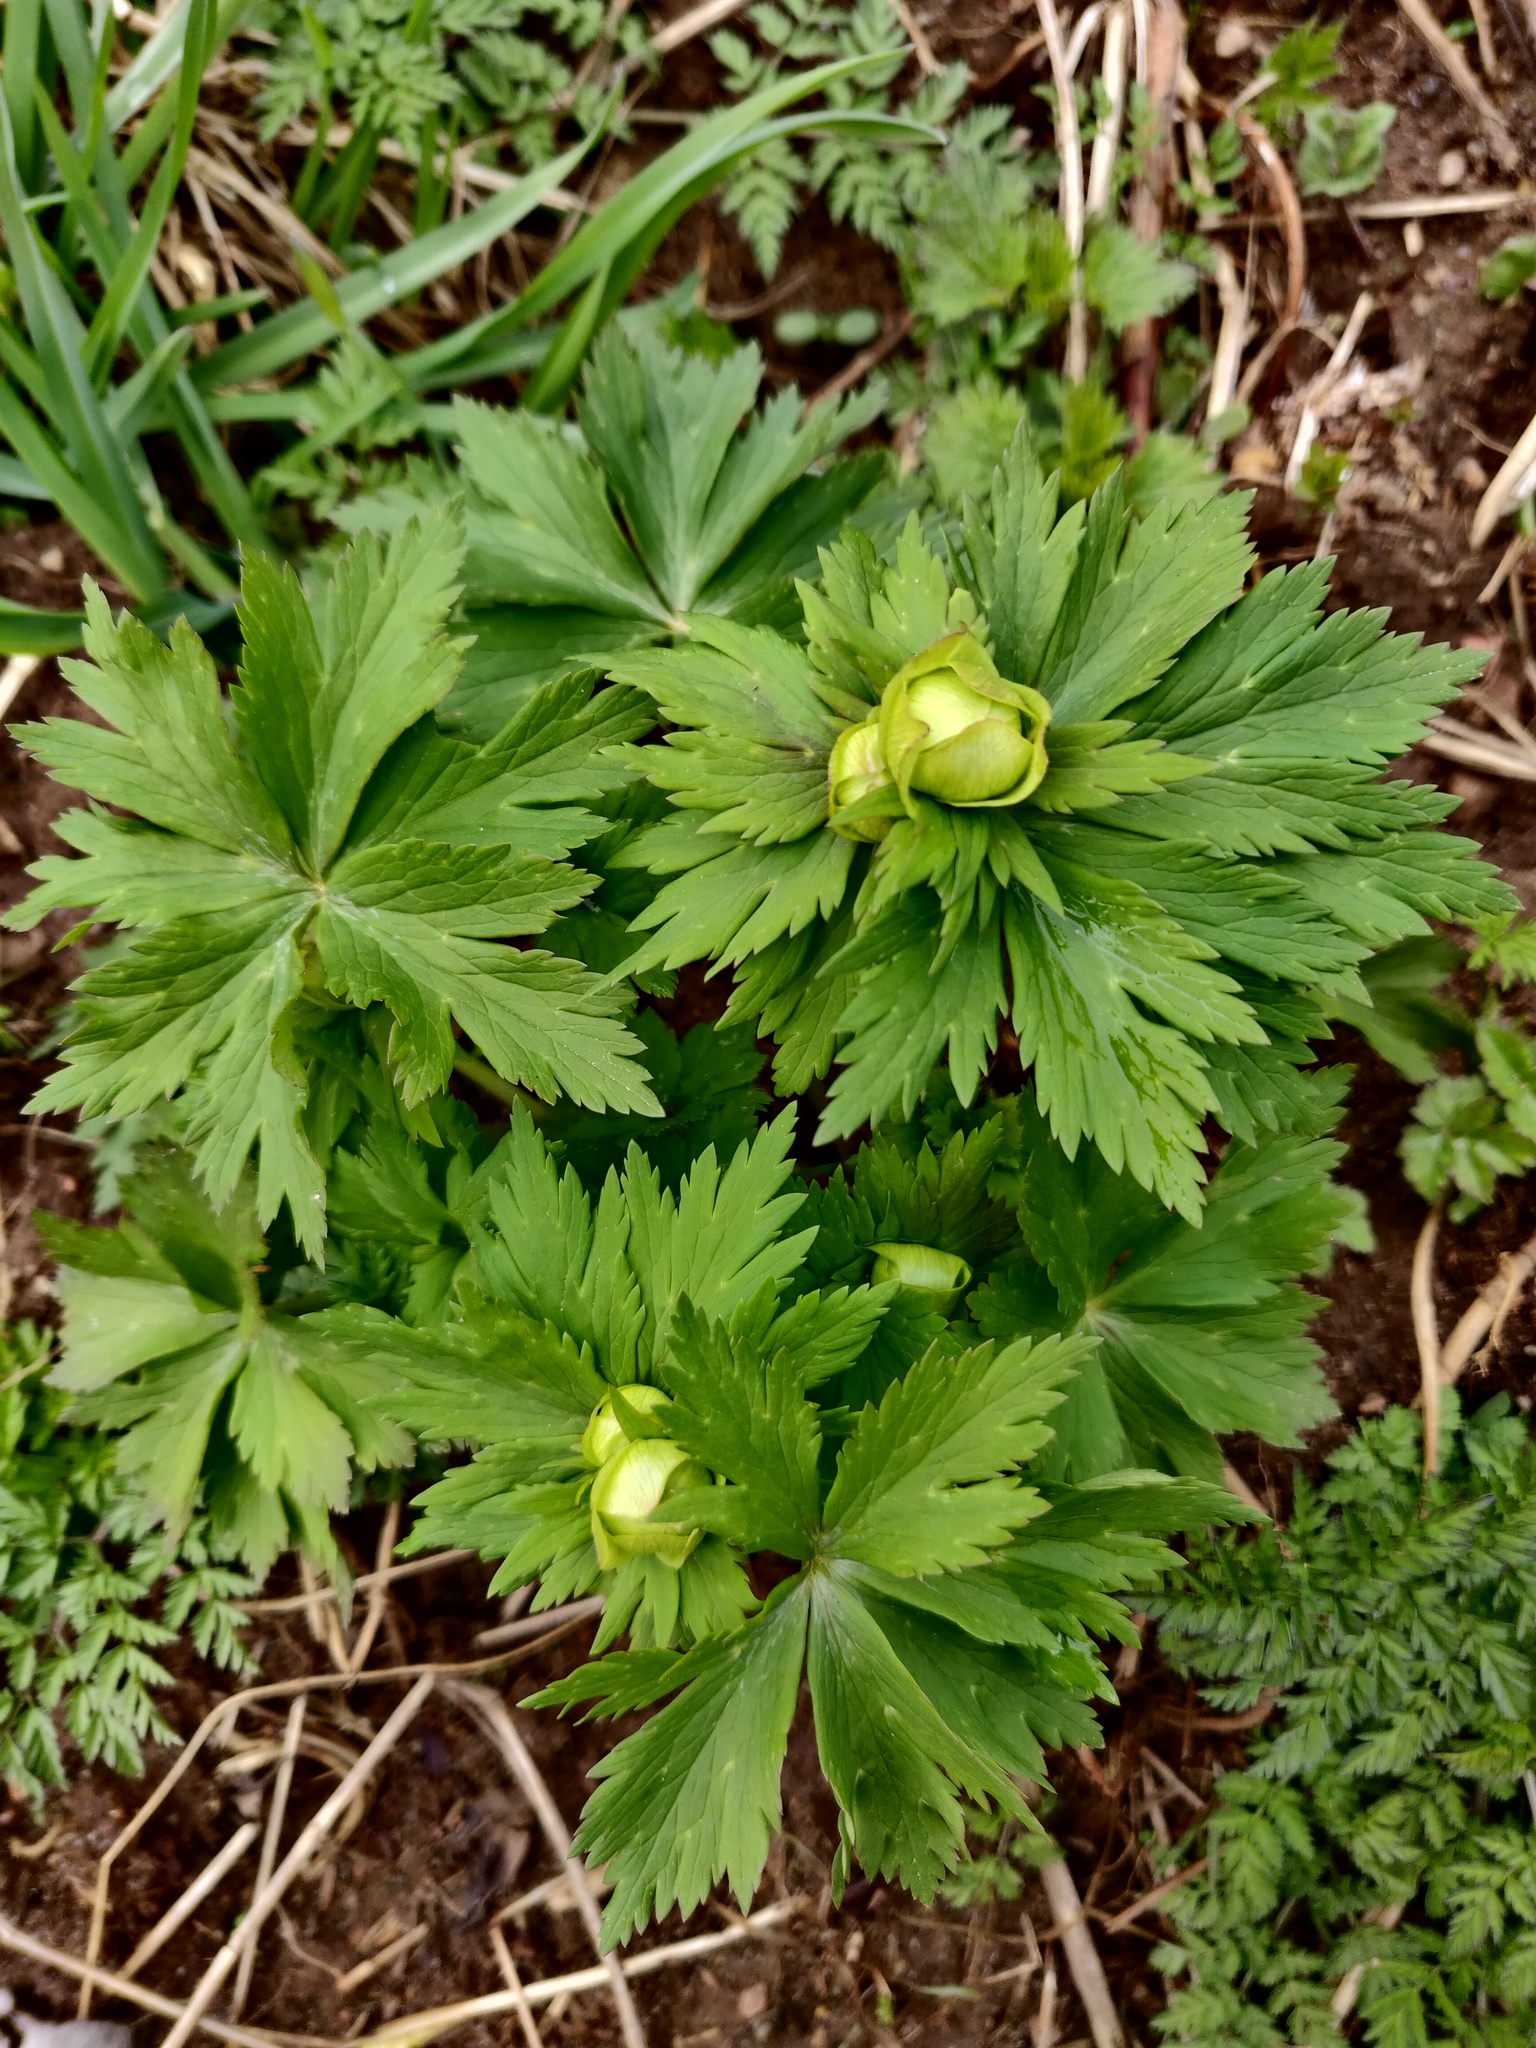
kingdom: Plantae
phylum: Tracheophyta
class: Magnoliopsida
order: Ranunculales
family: Ranunculaceae
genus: Trollius
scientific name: Trollius europaeus
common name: European globeflower
